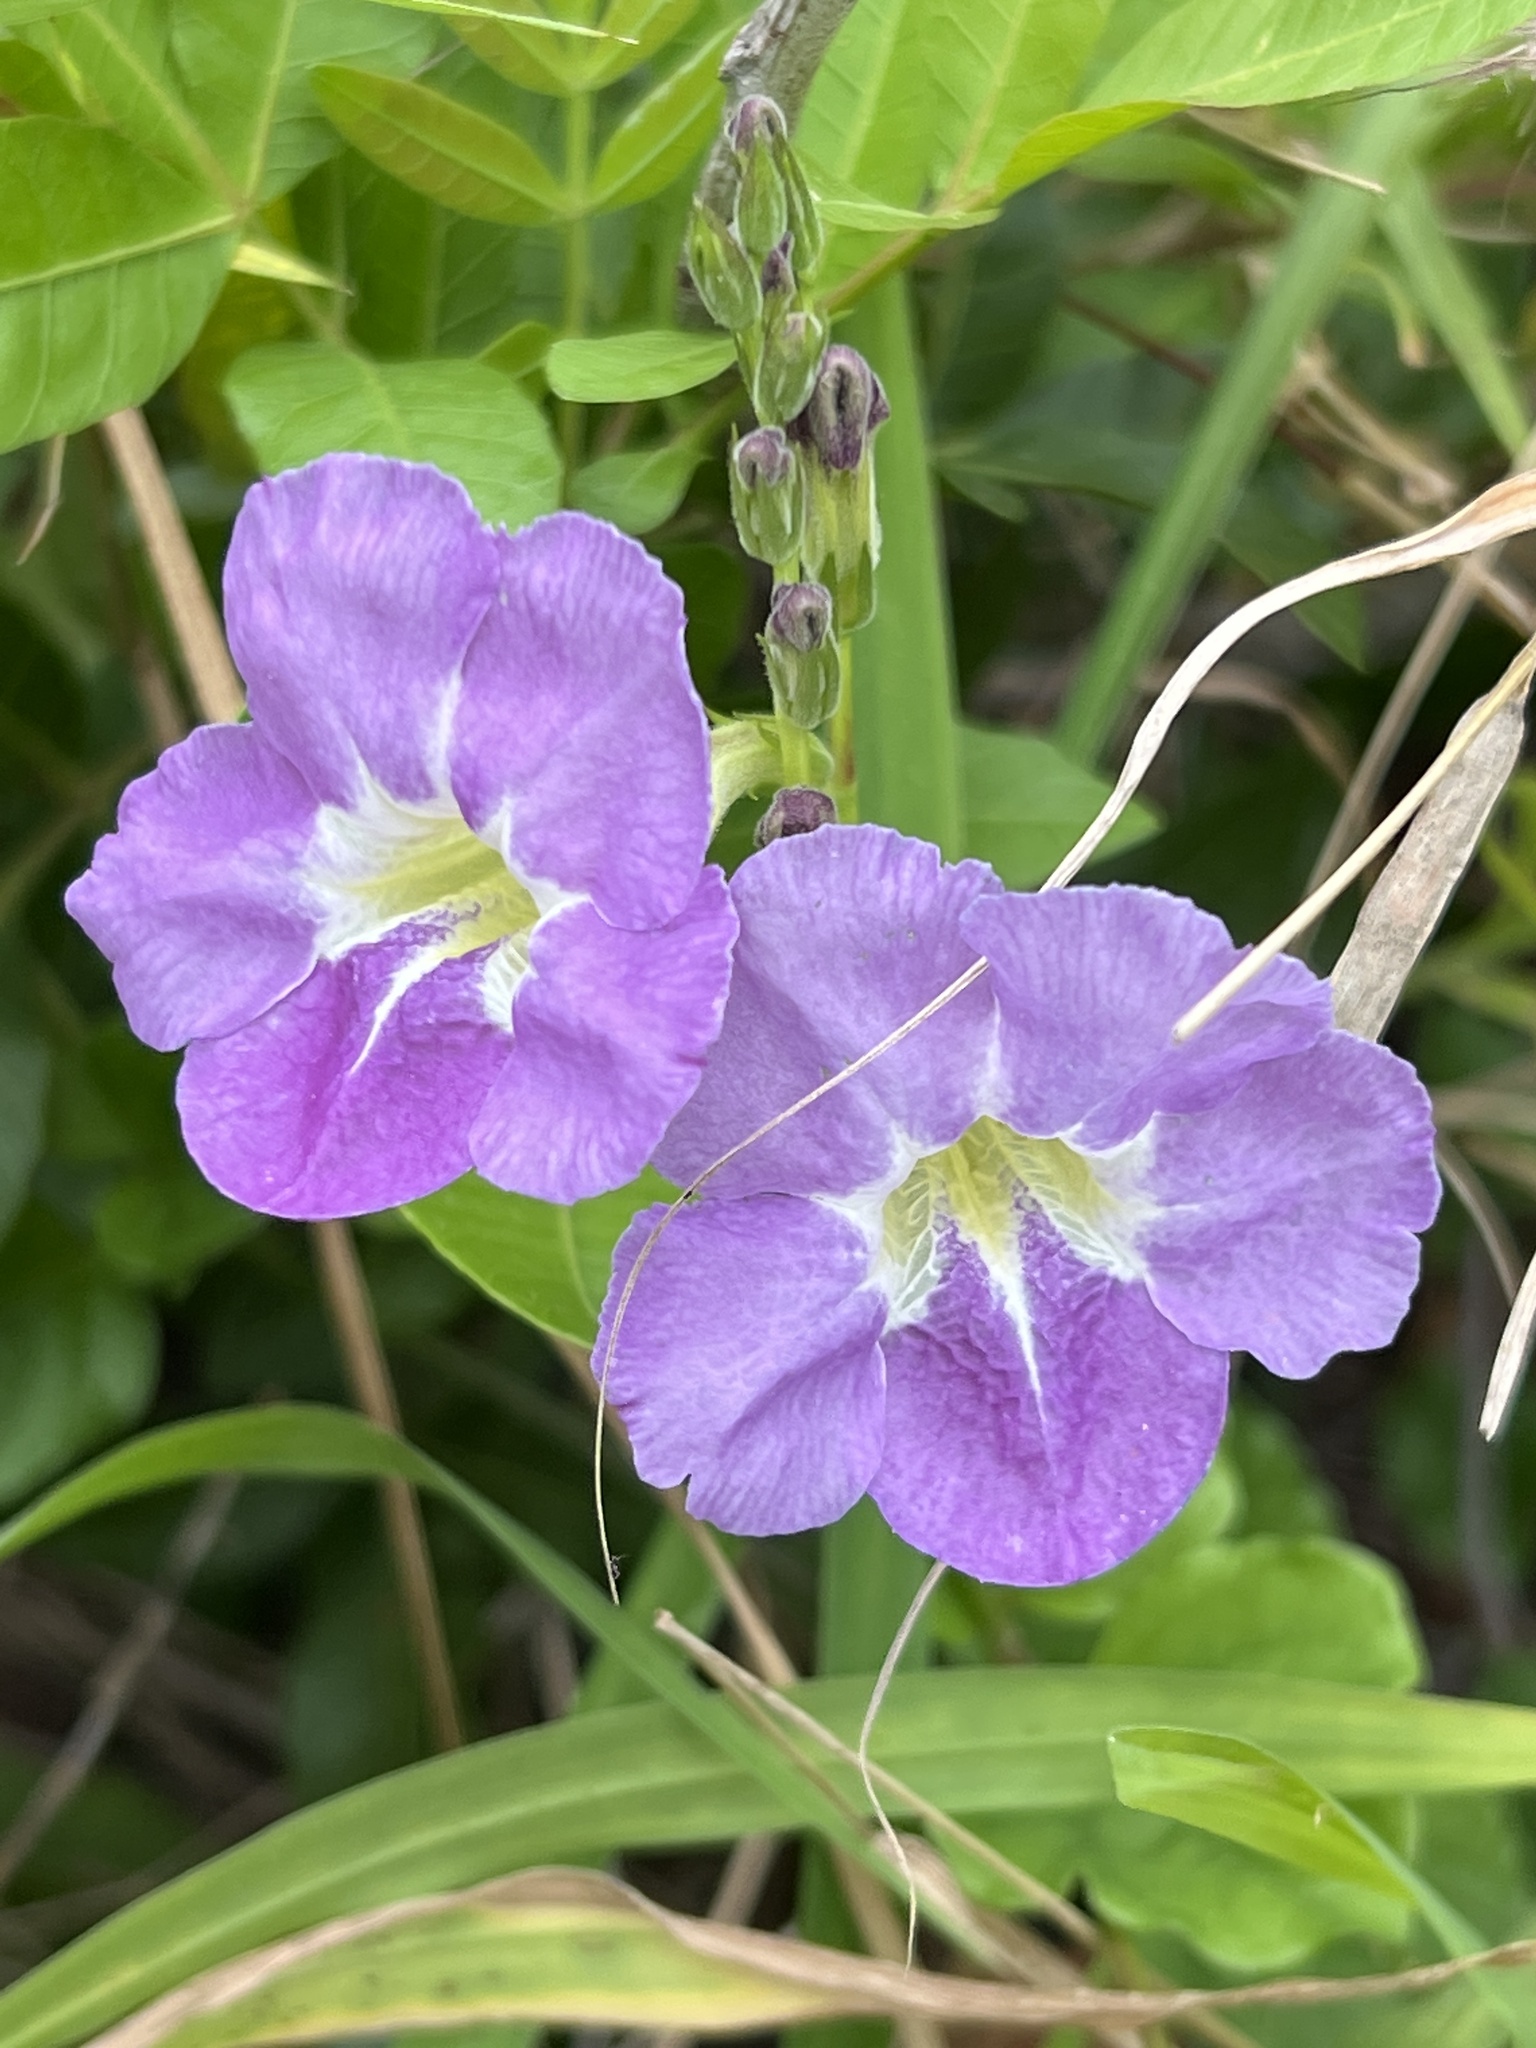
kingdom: Plantae
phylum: Tracheophyta
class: Magnoliopsida
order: Lamiales
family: Acanthaceae
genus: Asystasia
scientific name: Asystasia gangetica
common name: Chinese violet
